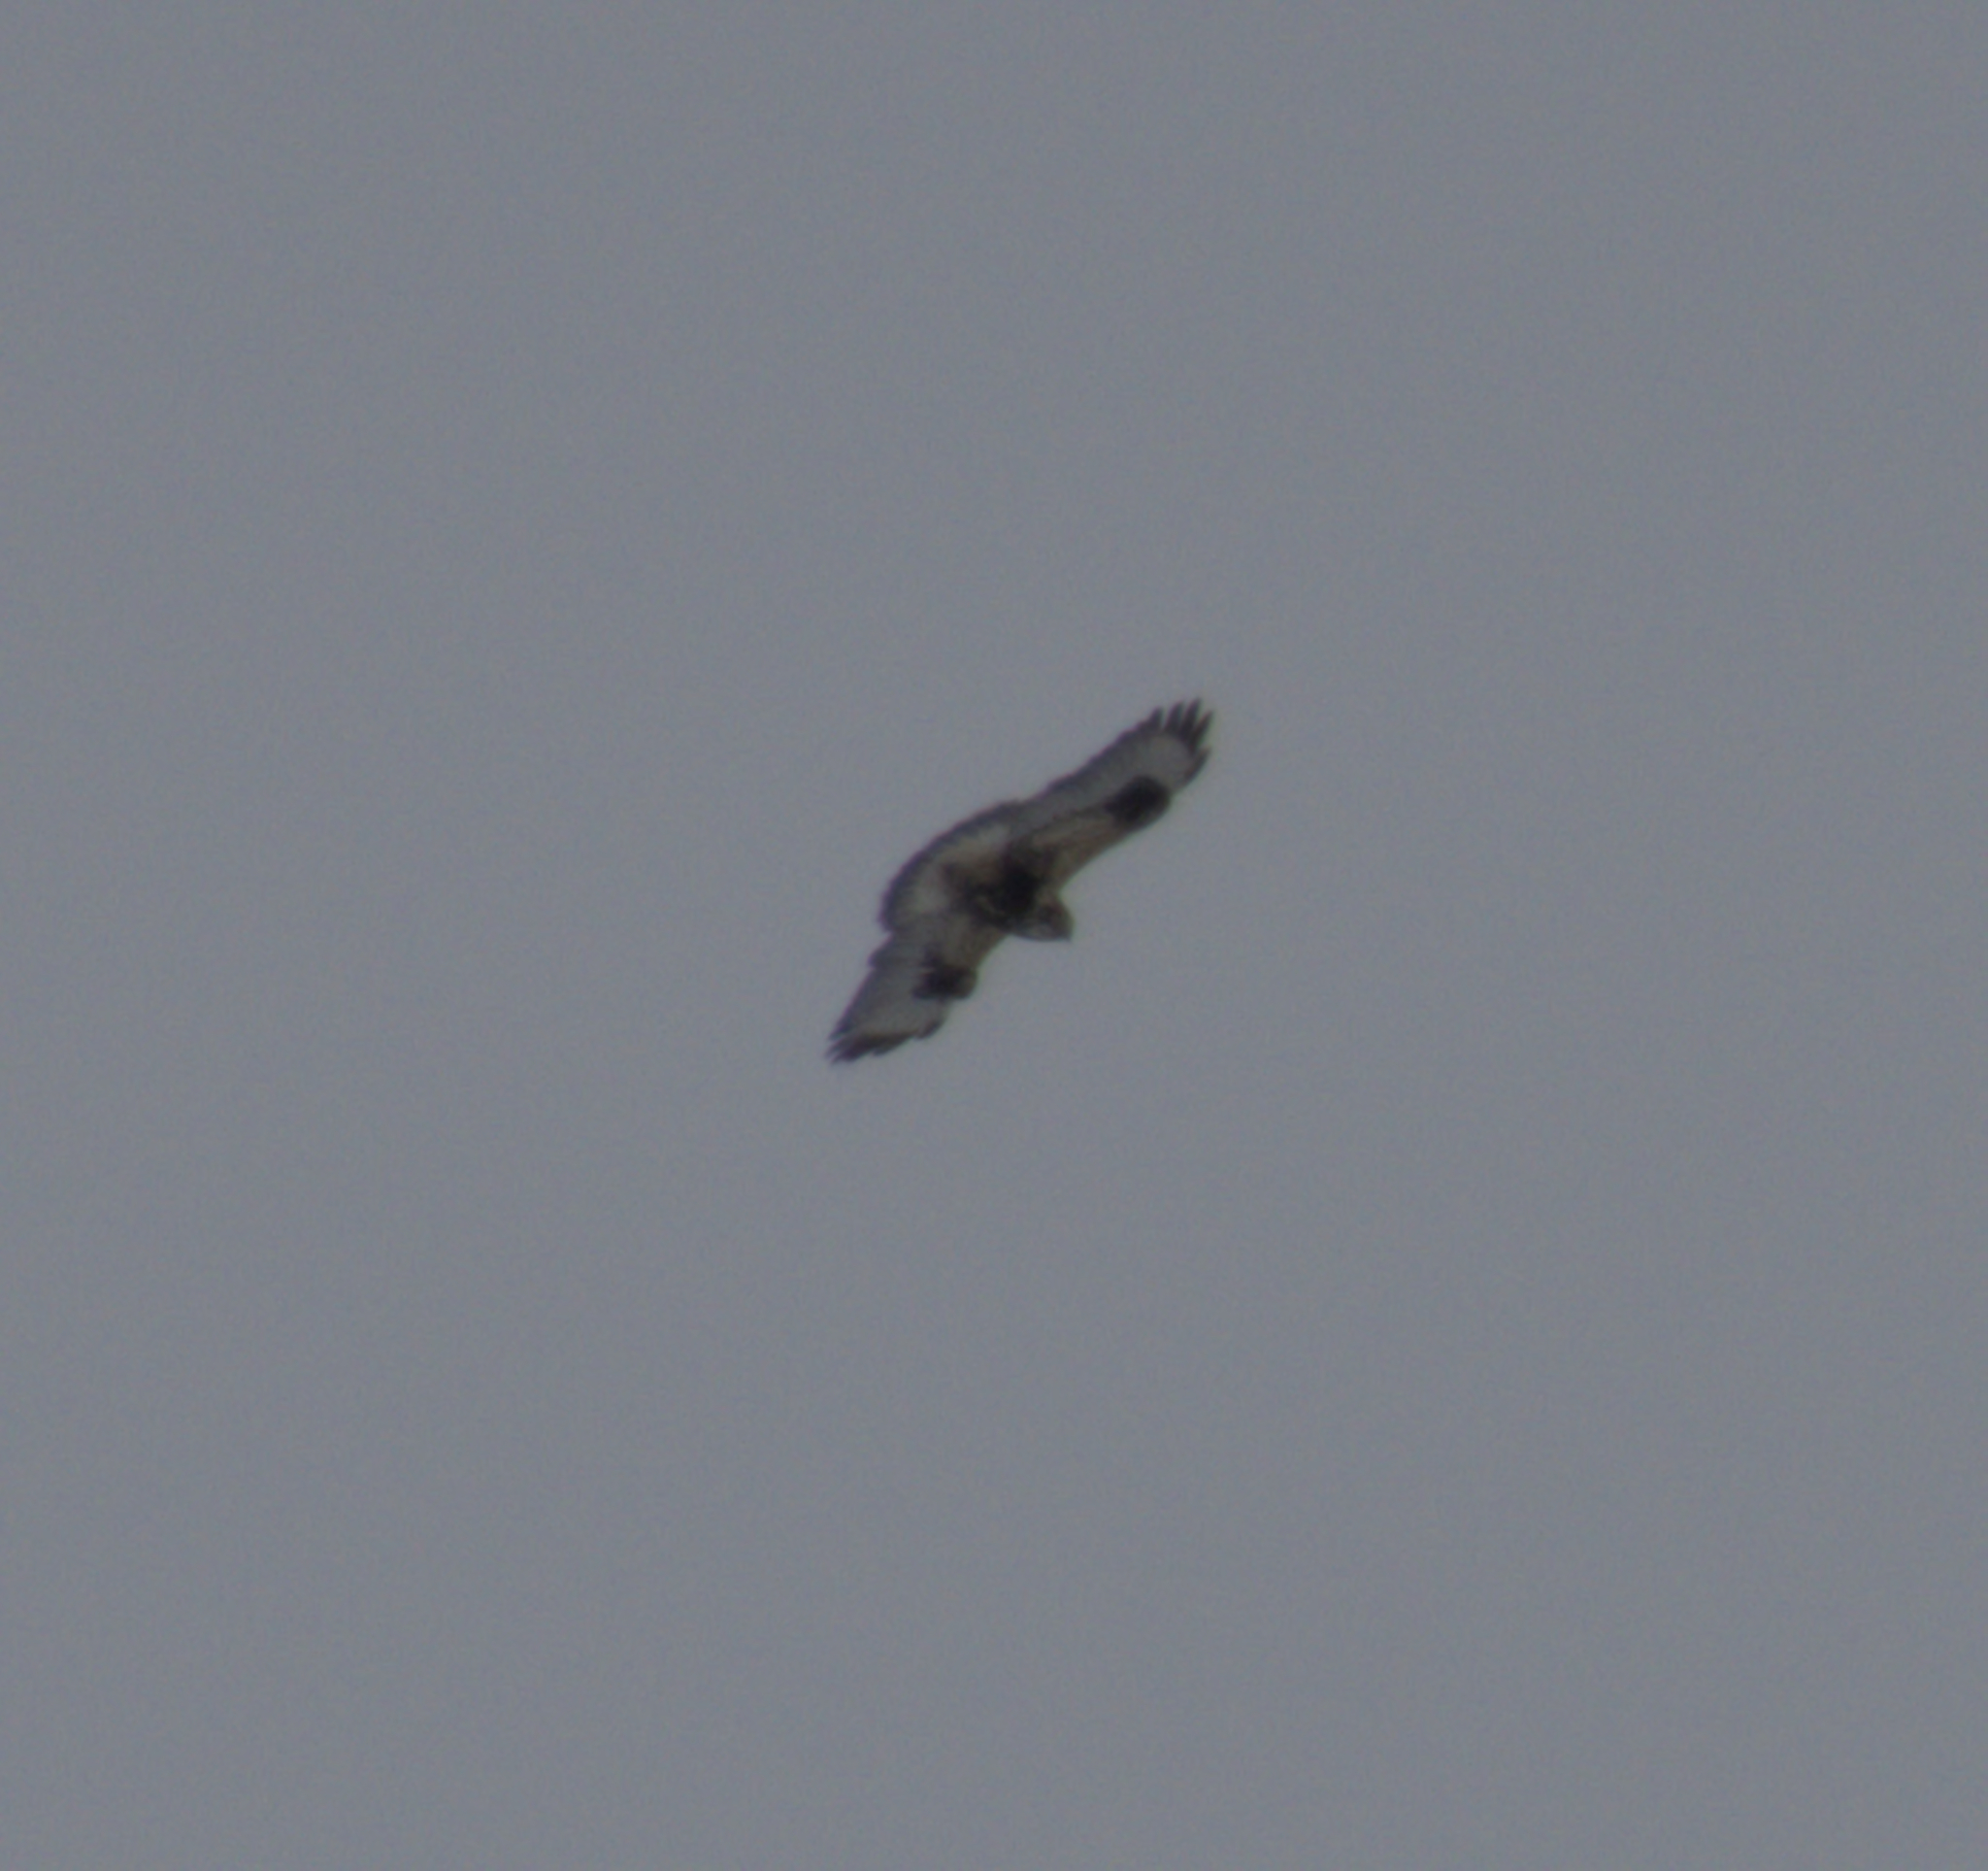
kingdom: Animalia
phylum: Chordata
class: Aves
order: Accipitriformes
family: Accipitridae
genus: Buteo
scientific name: Buteo lagopus
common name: Rough-legged buzzard
